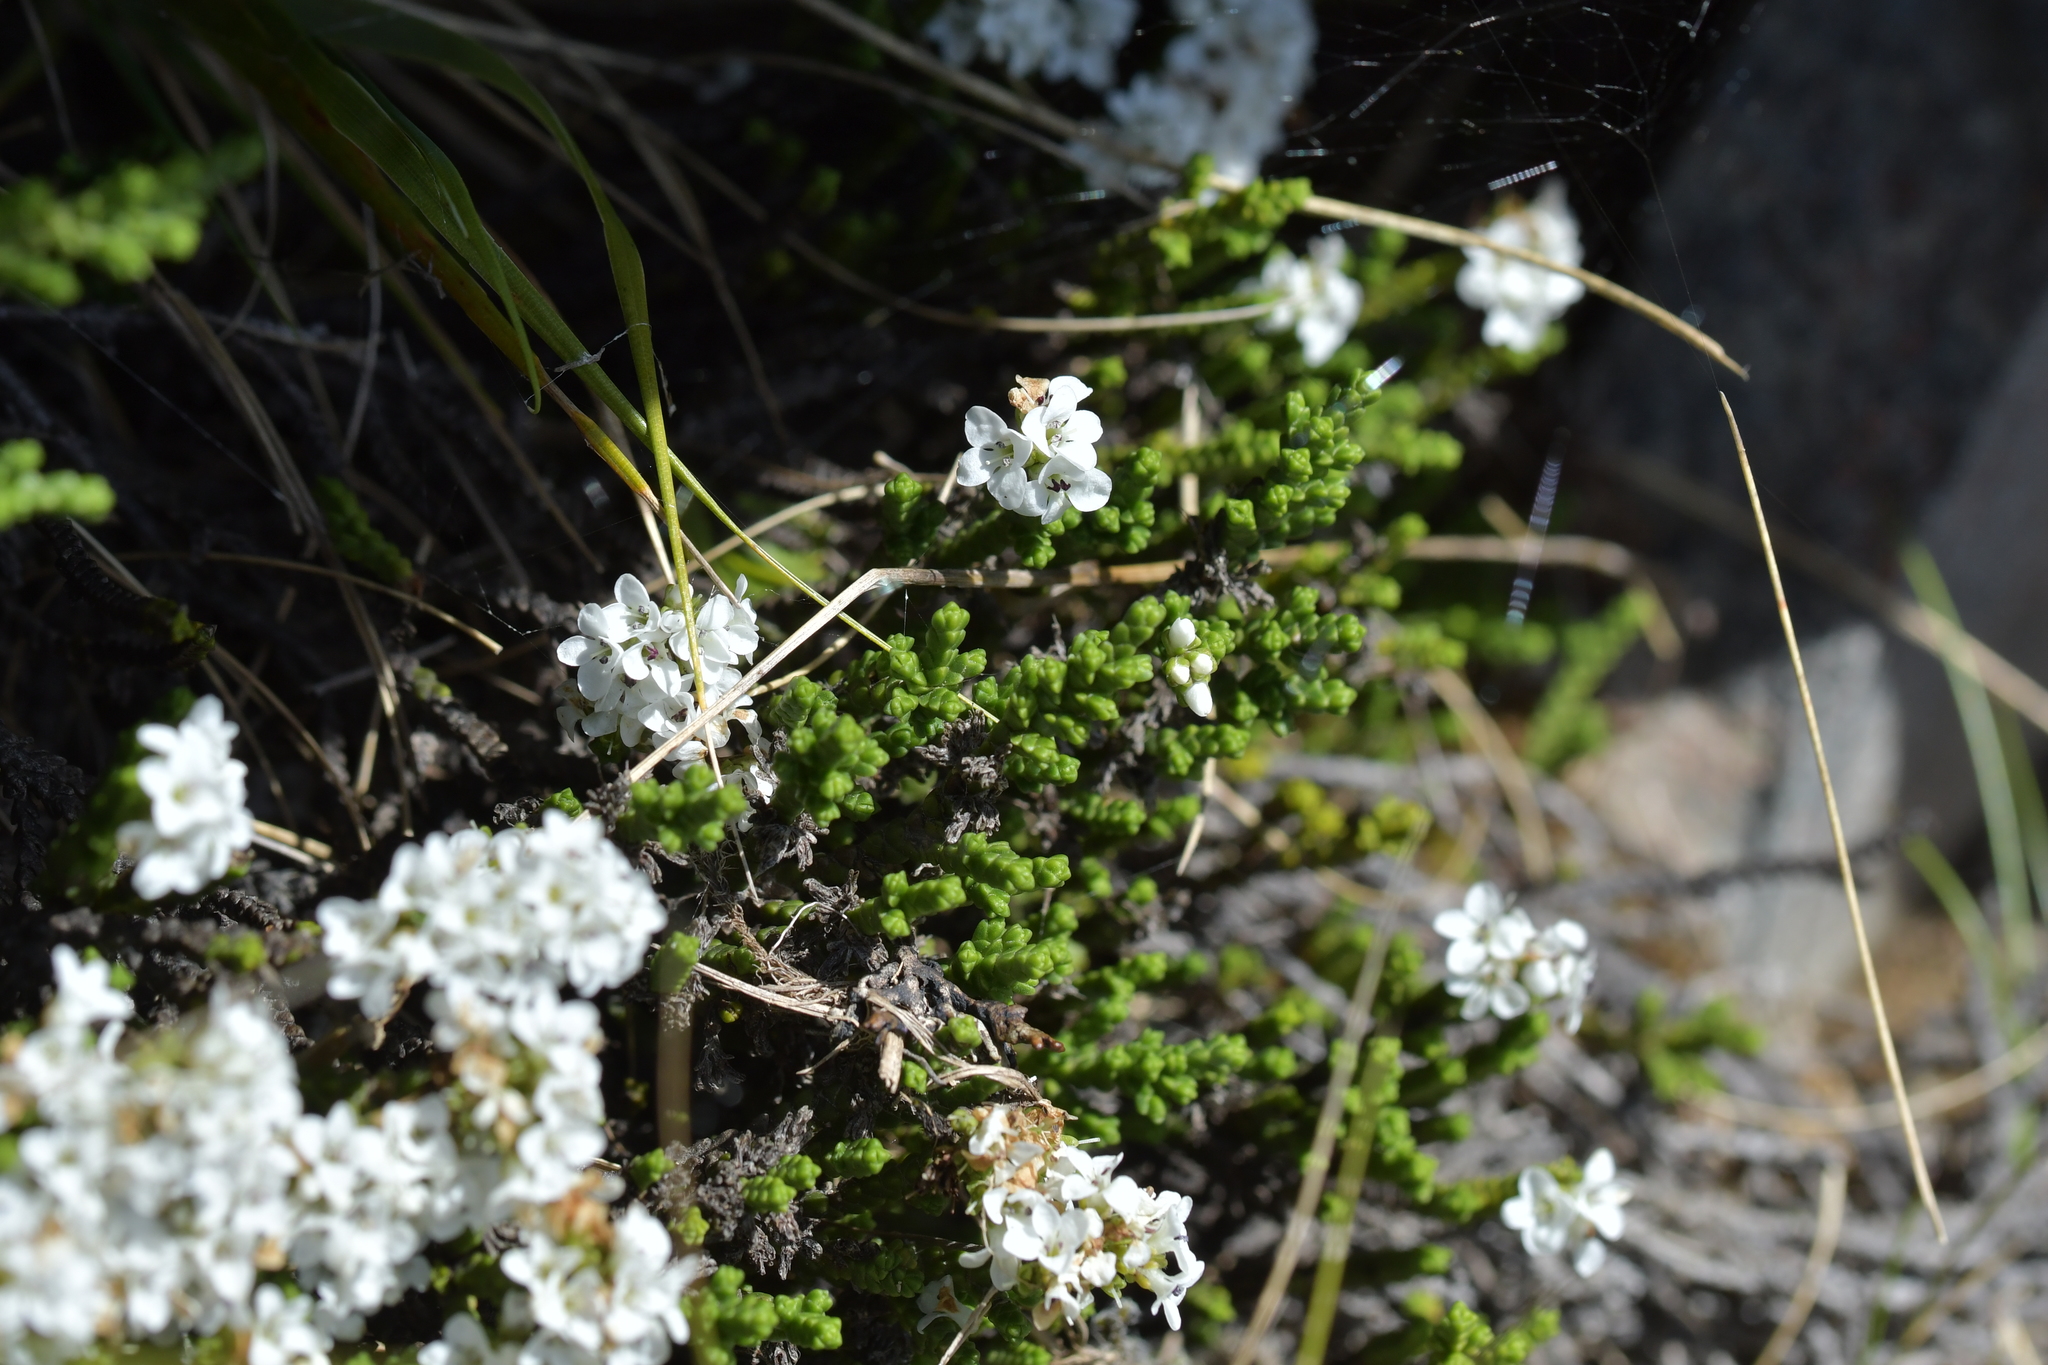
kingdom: Plantae
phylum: Tracheophyta
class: Magnoliopsida
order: Lamiales
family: Plantaginaceae
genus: Veronica
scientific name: Veronica tumida
